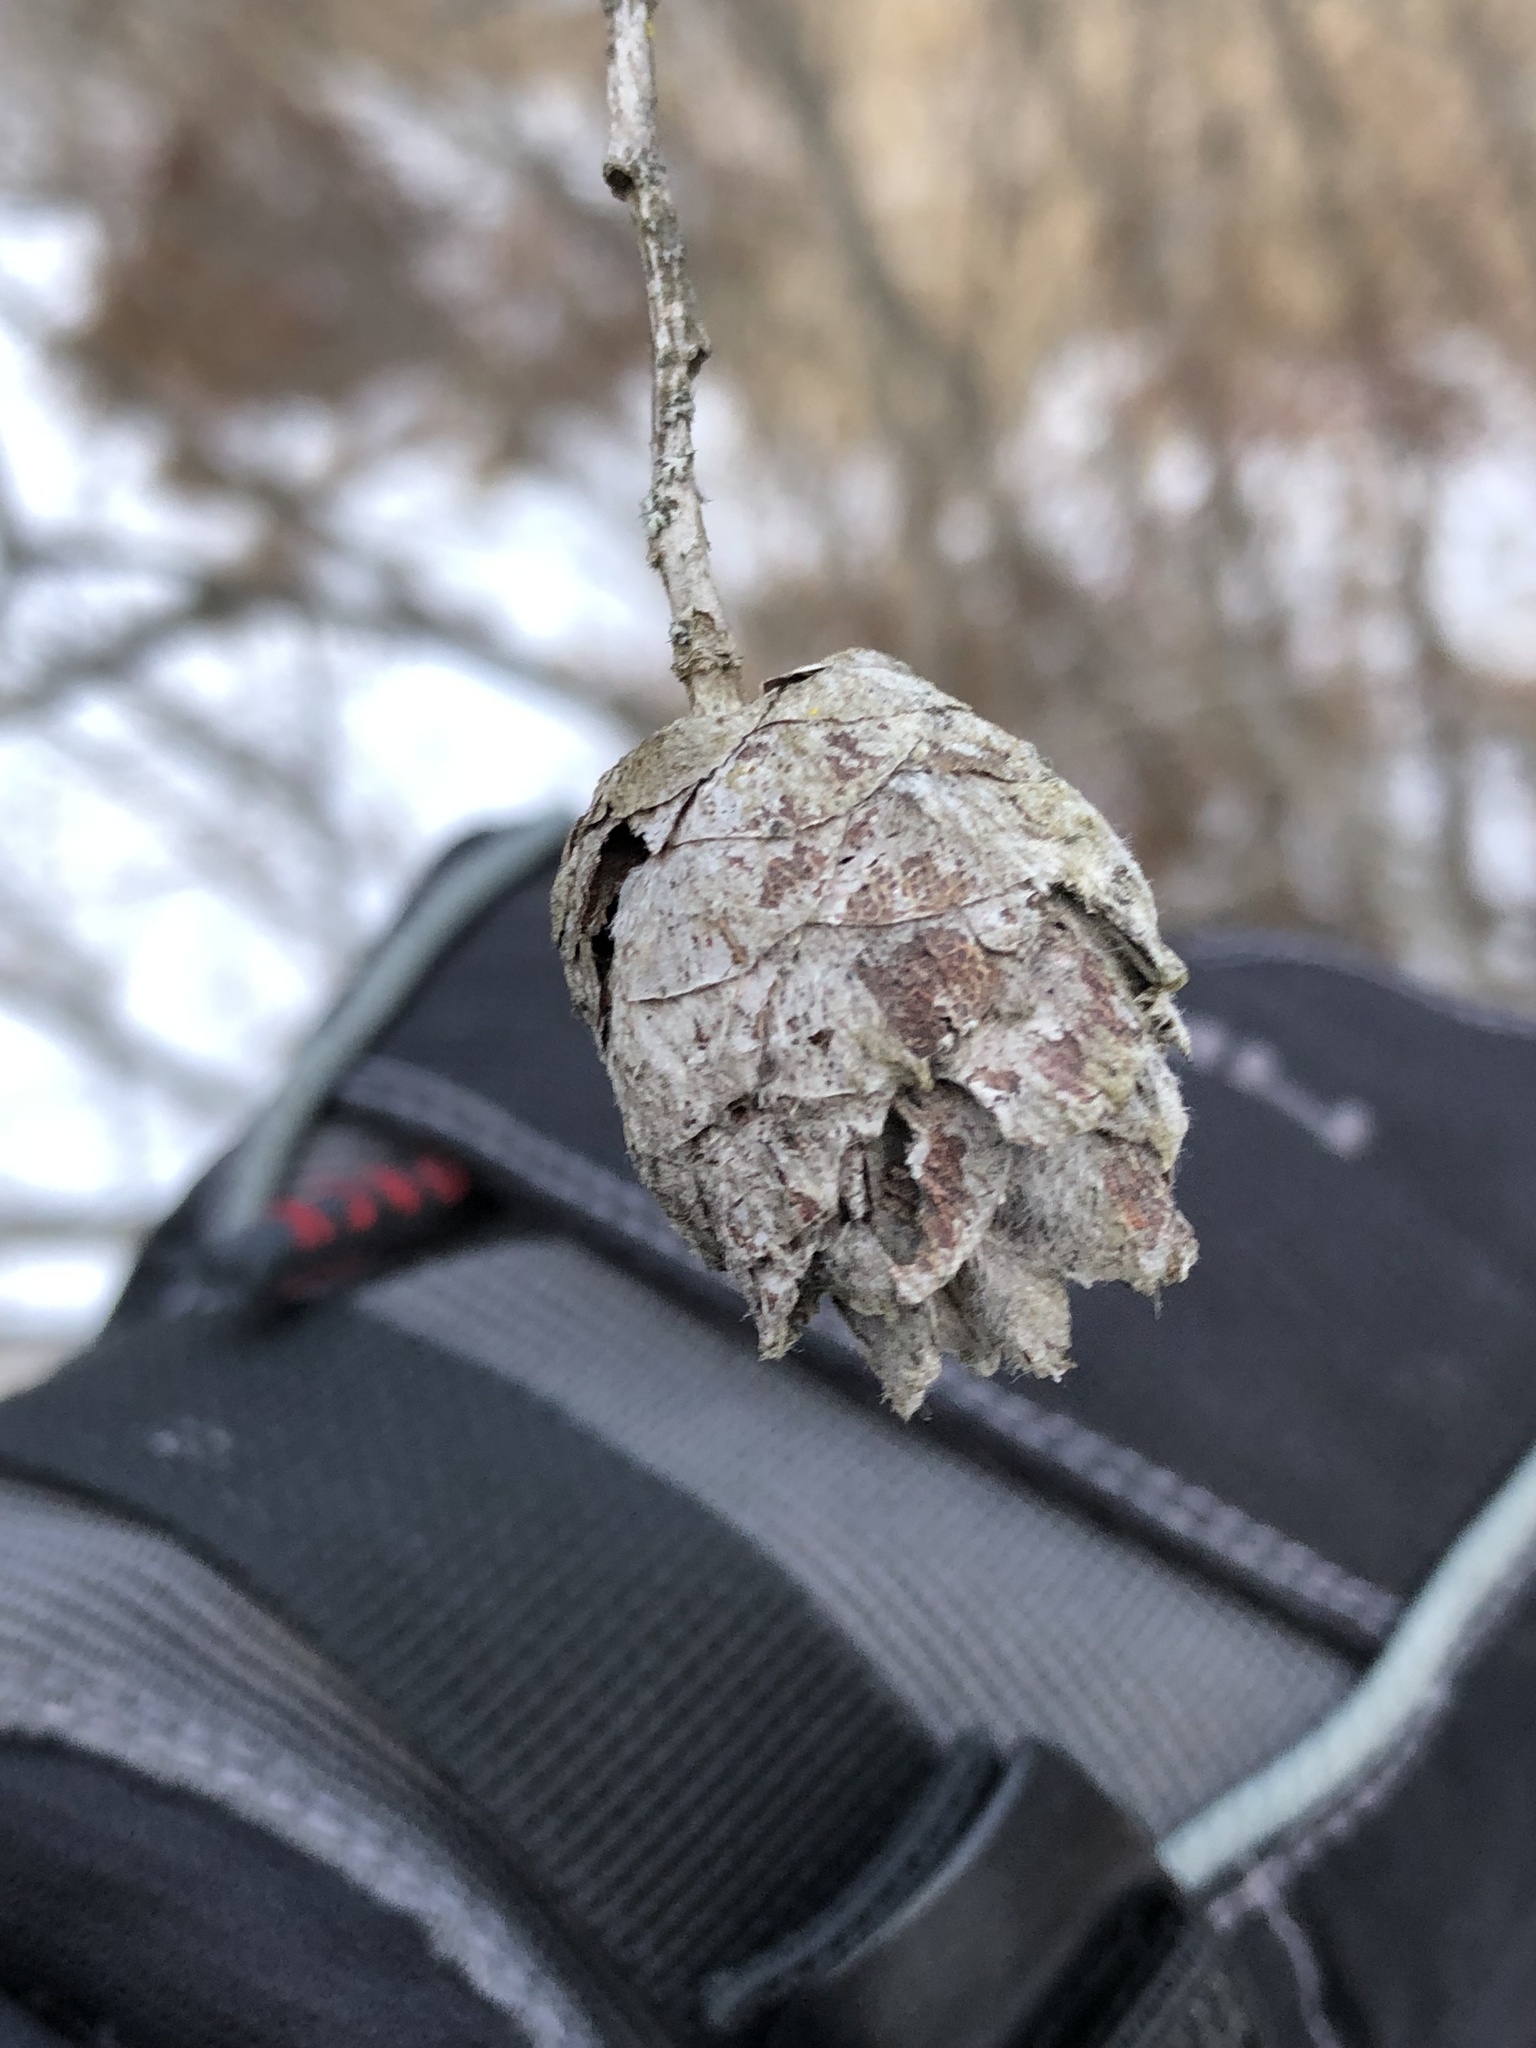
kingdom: Animalia
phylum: Arthropoda
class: Insecta
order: Diptera
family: Cecidomyiidae
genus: Rabdophaga
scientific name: Rabdophaga strobiloides
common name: Willow pinecone gall midge
